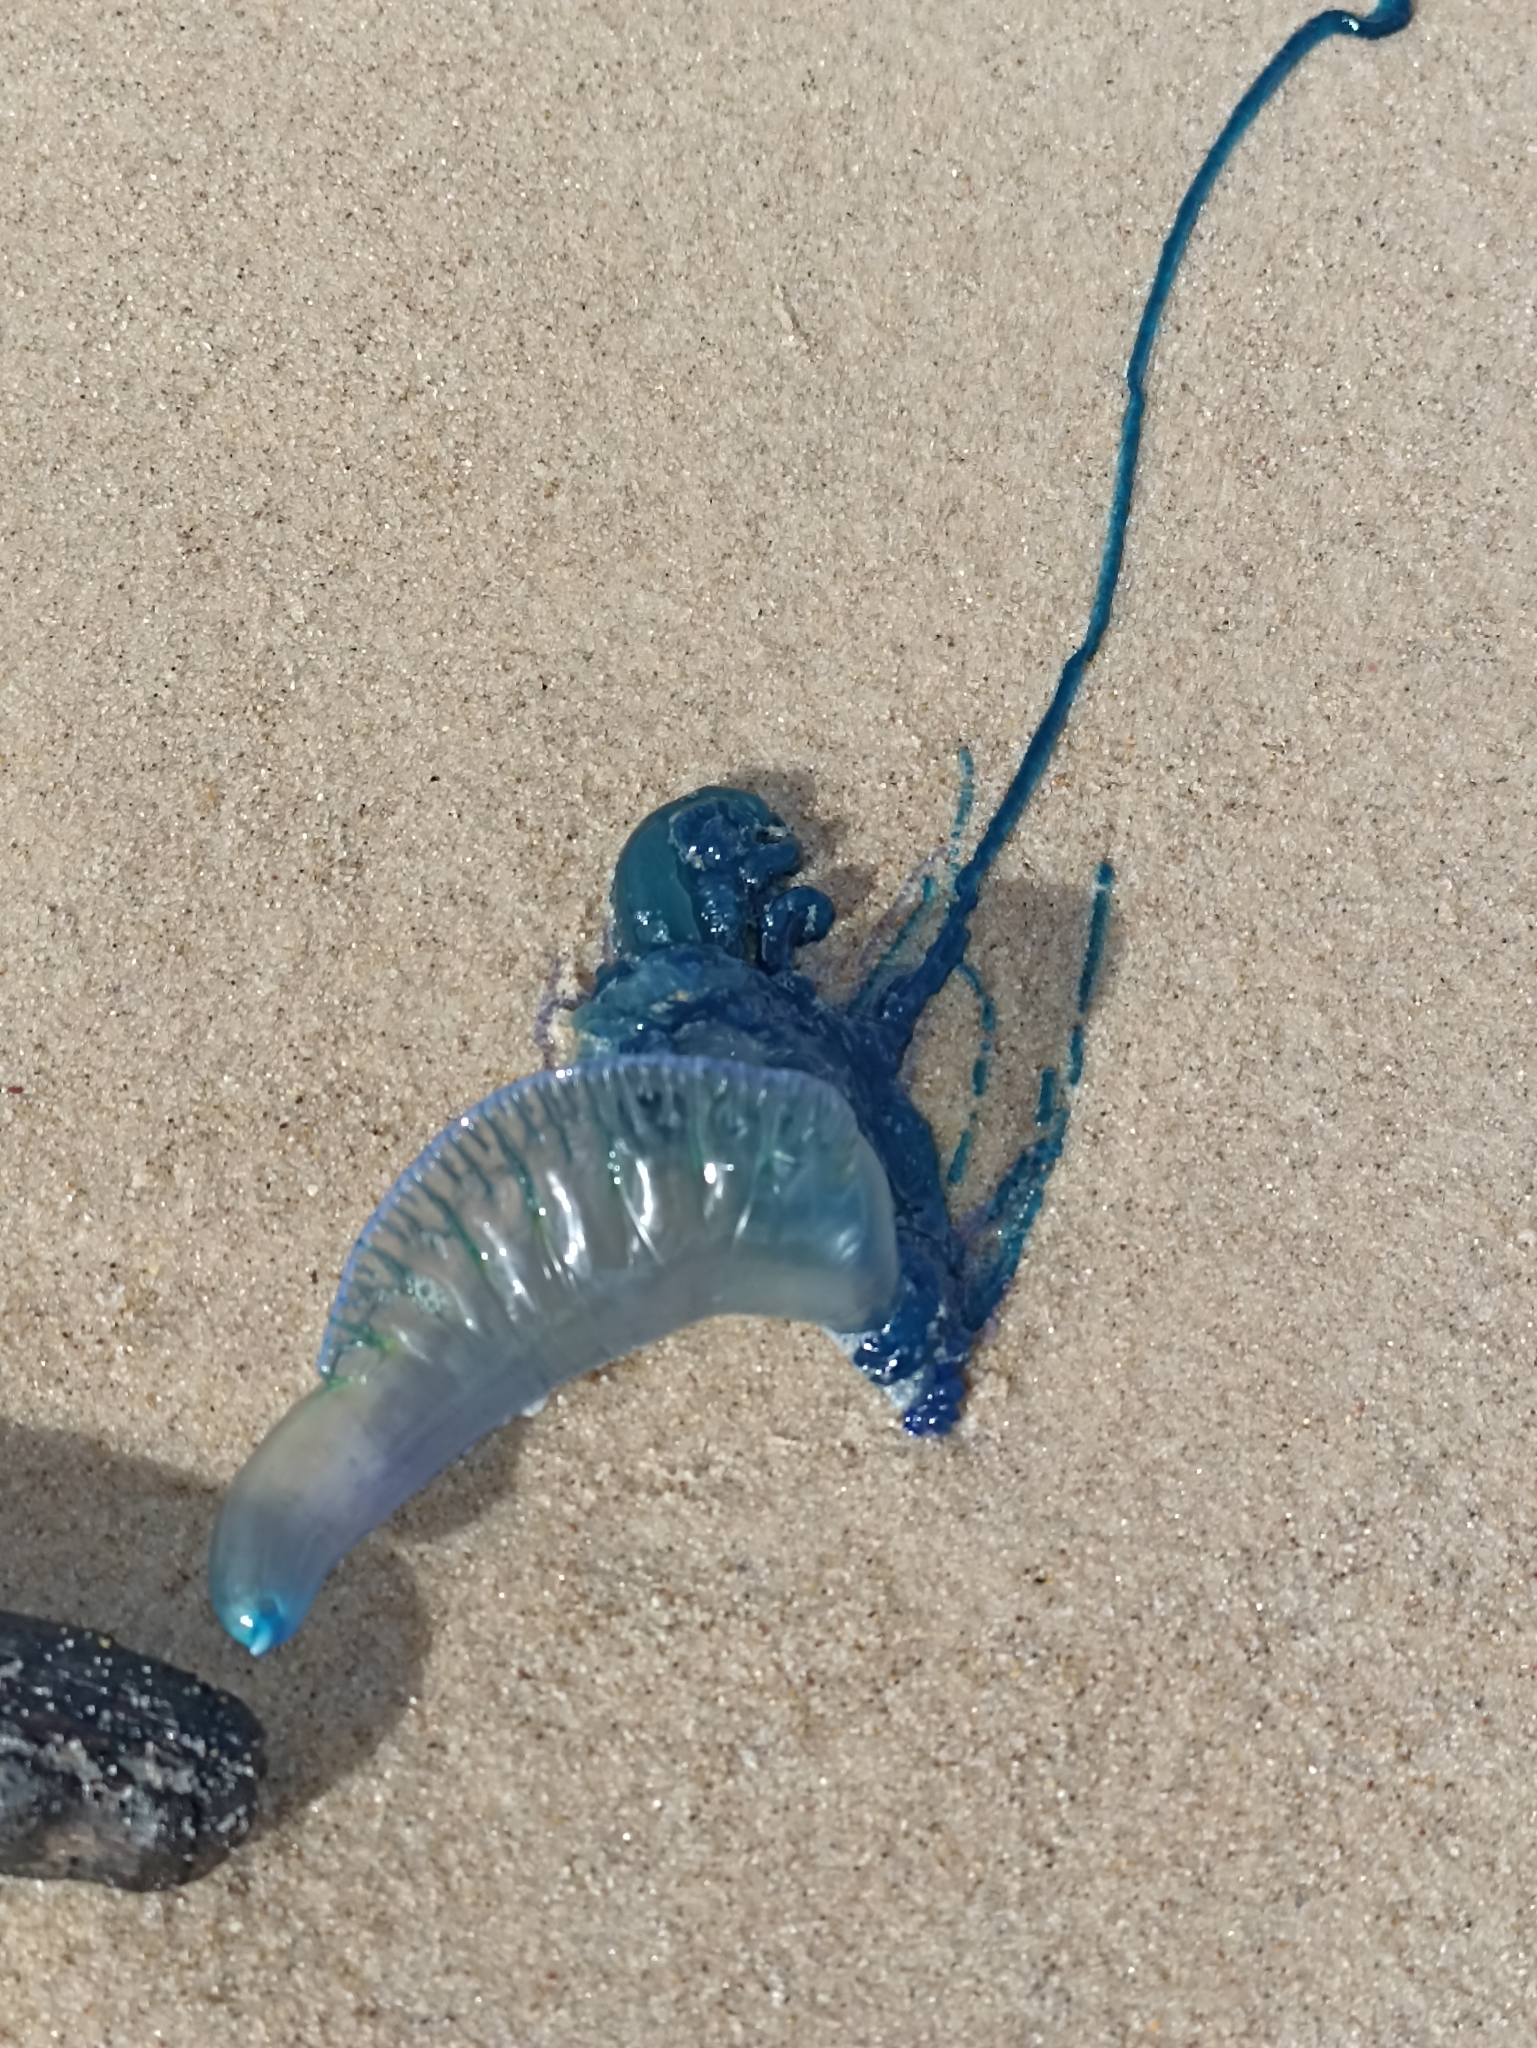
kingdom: Animalia
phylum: Cnidaria
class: Hydrozoa
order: Siphonophorae
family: Physaliidae
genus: Physalia
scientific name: Physalia physalis
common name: Portuguese man-of-war
